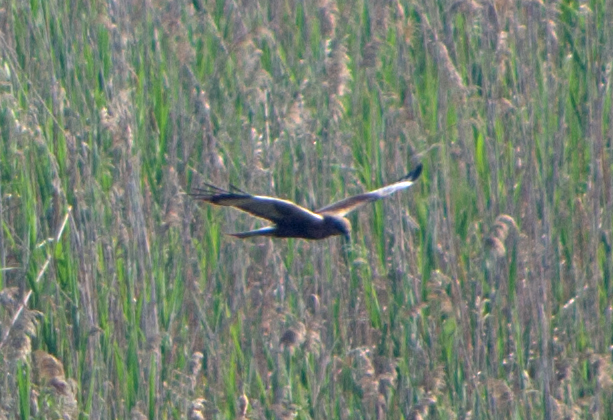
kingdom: Animalia
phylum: Chordata
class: Aves
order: Accipitriformes
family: Accipitridae
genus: Circus
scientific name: Circus aeruginosus
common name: Western marsh harrier
